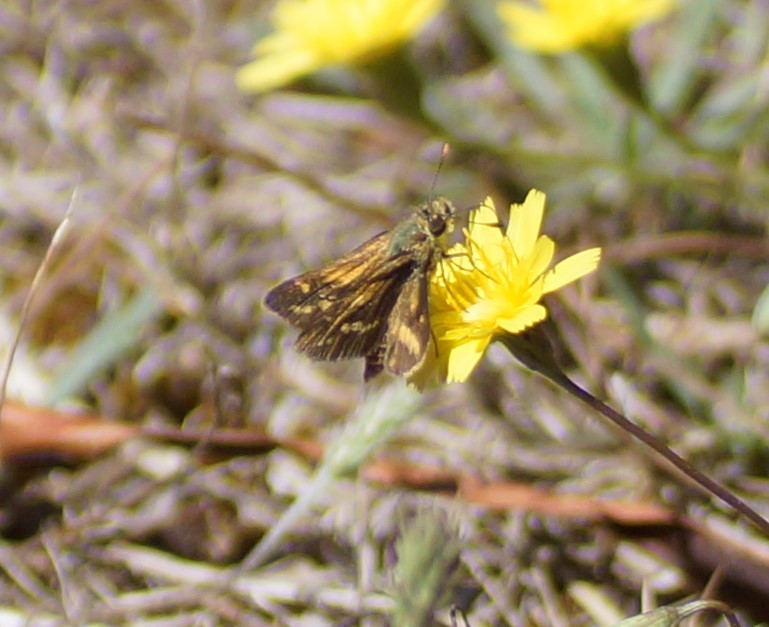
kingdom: Animalia
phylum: Arthropoda
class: Insecta
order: Lepidoptera
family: Hesperiidae
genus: Taractrocera
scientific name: Taractrocera papyria
